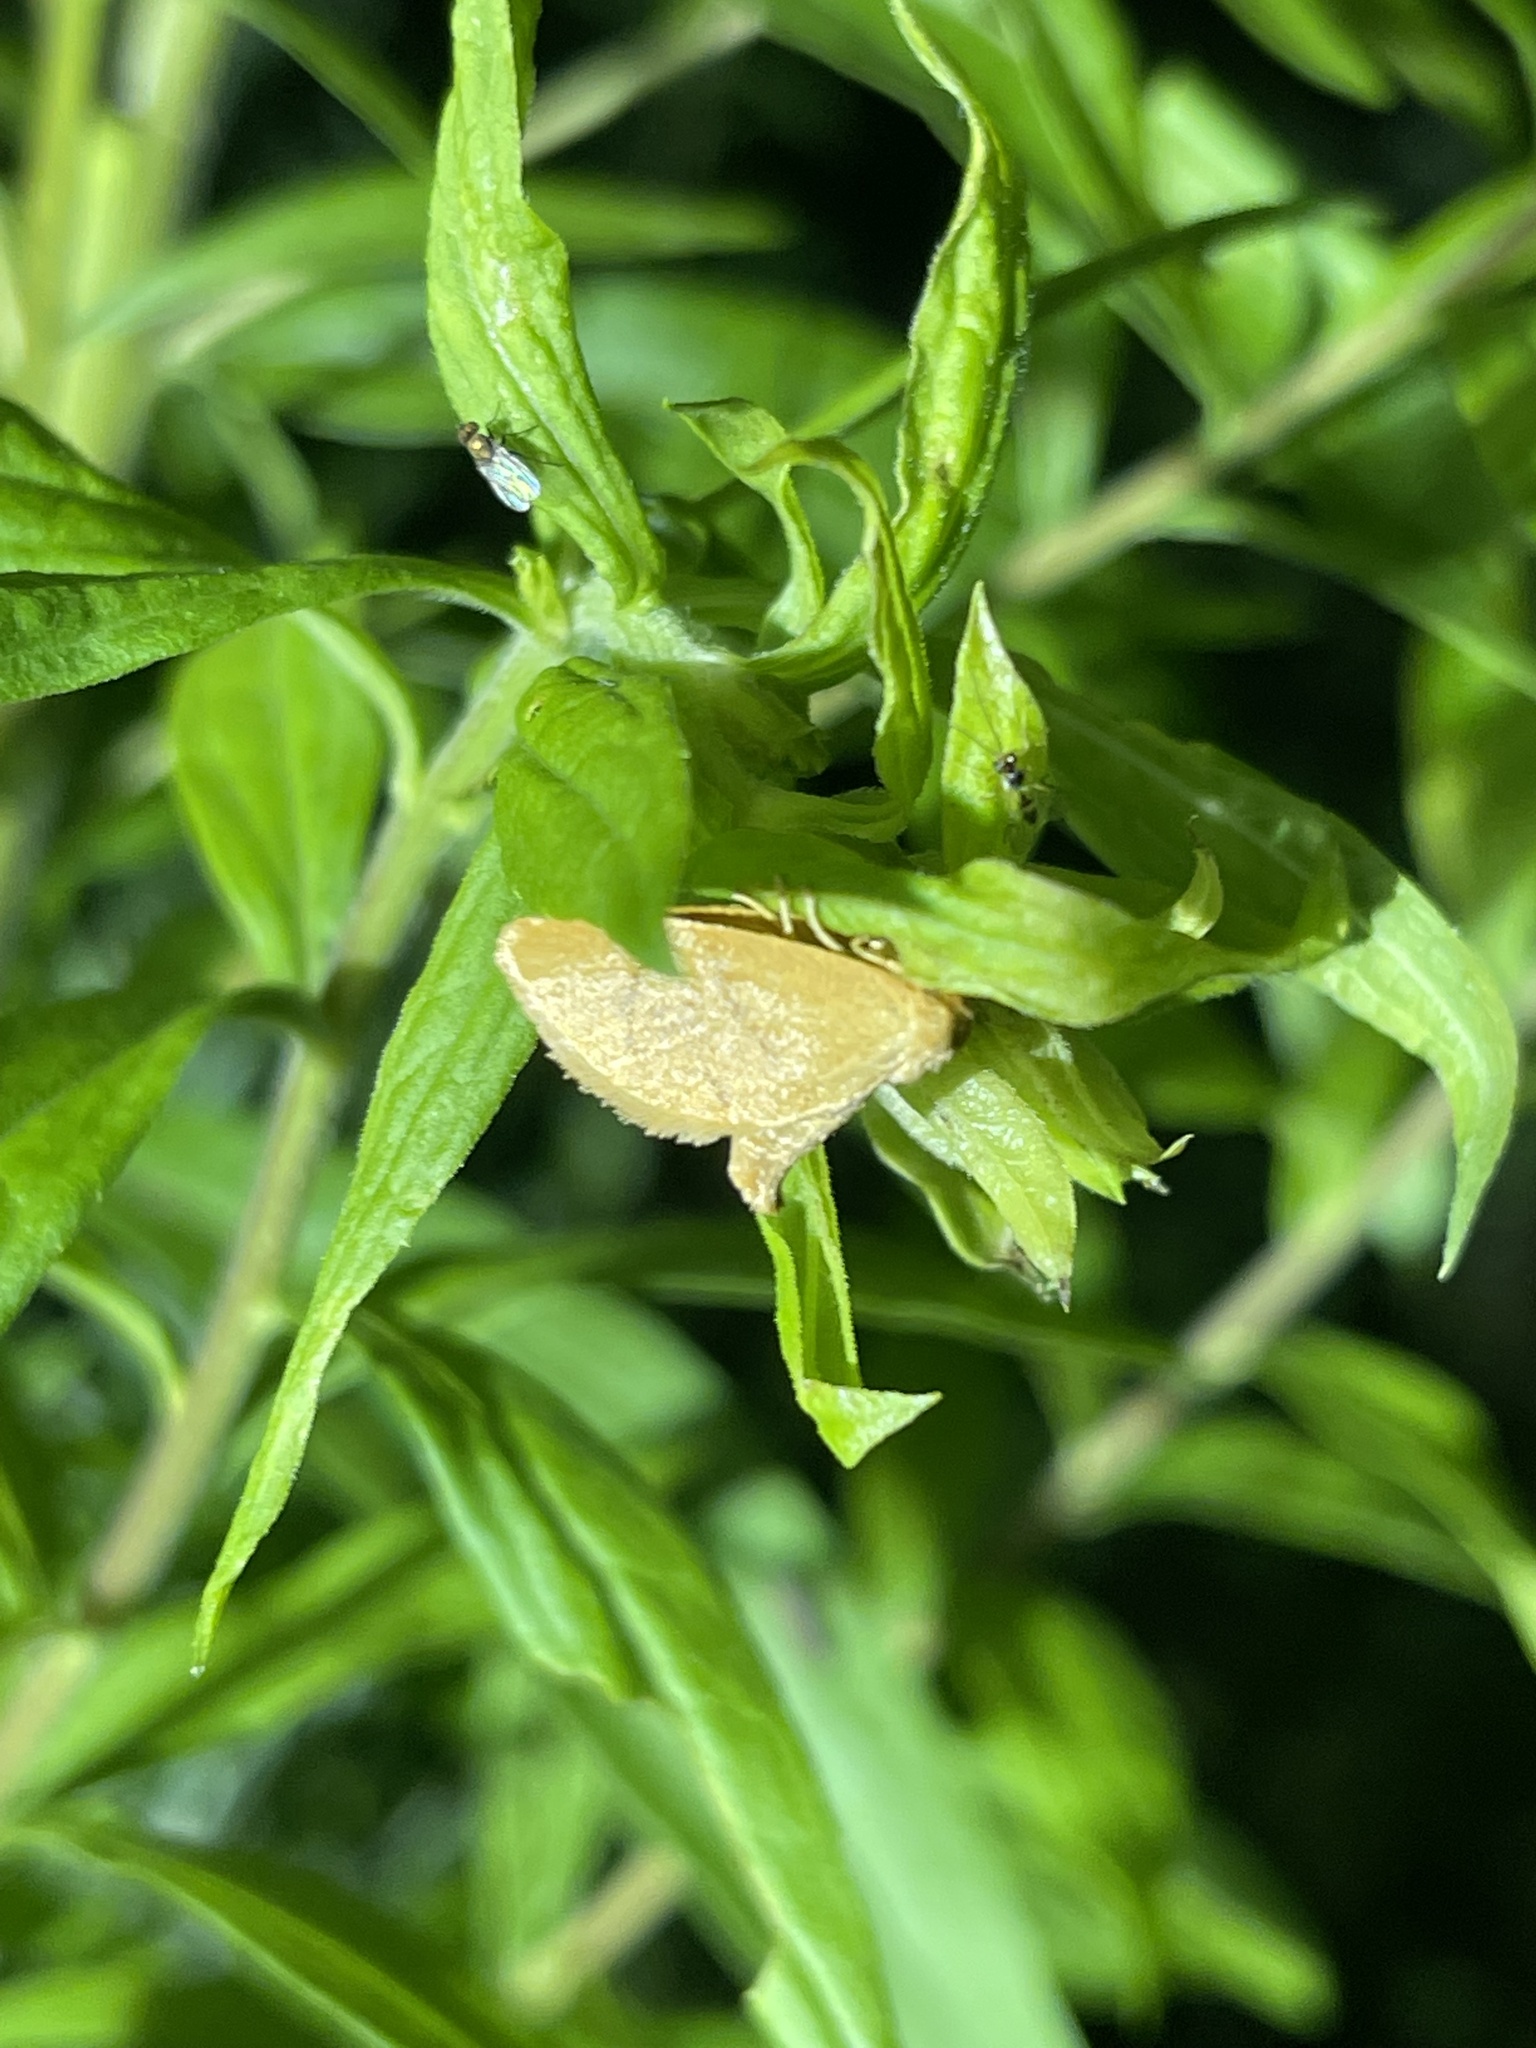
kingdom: Animalia
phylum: Arthropoda
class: Insecta
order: Lepidoptera
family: Limacodidae
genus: Tortricidia
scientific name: Tortricidia pallida
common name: Red-crossed button slug moth
